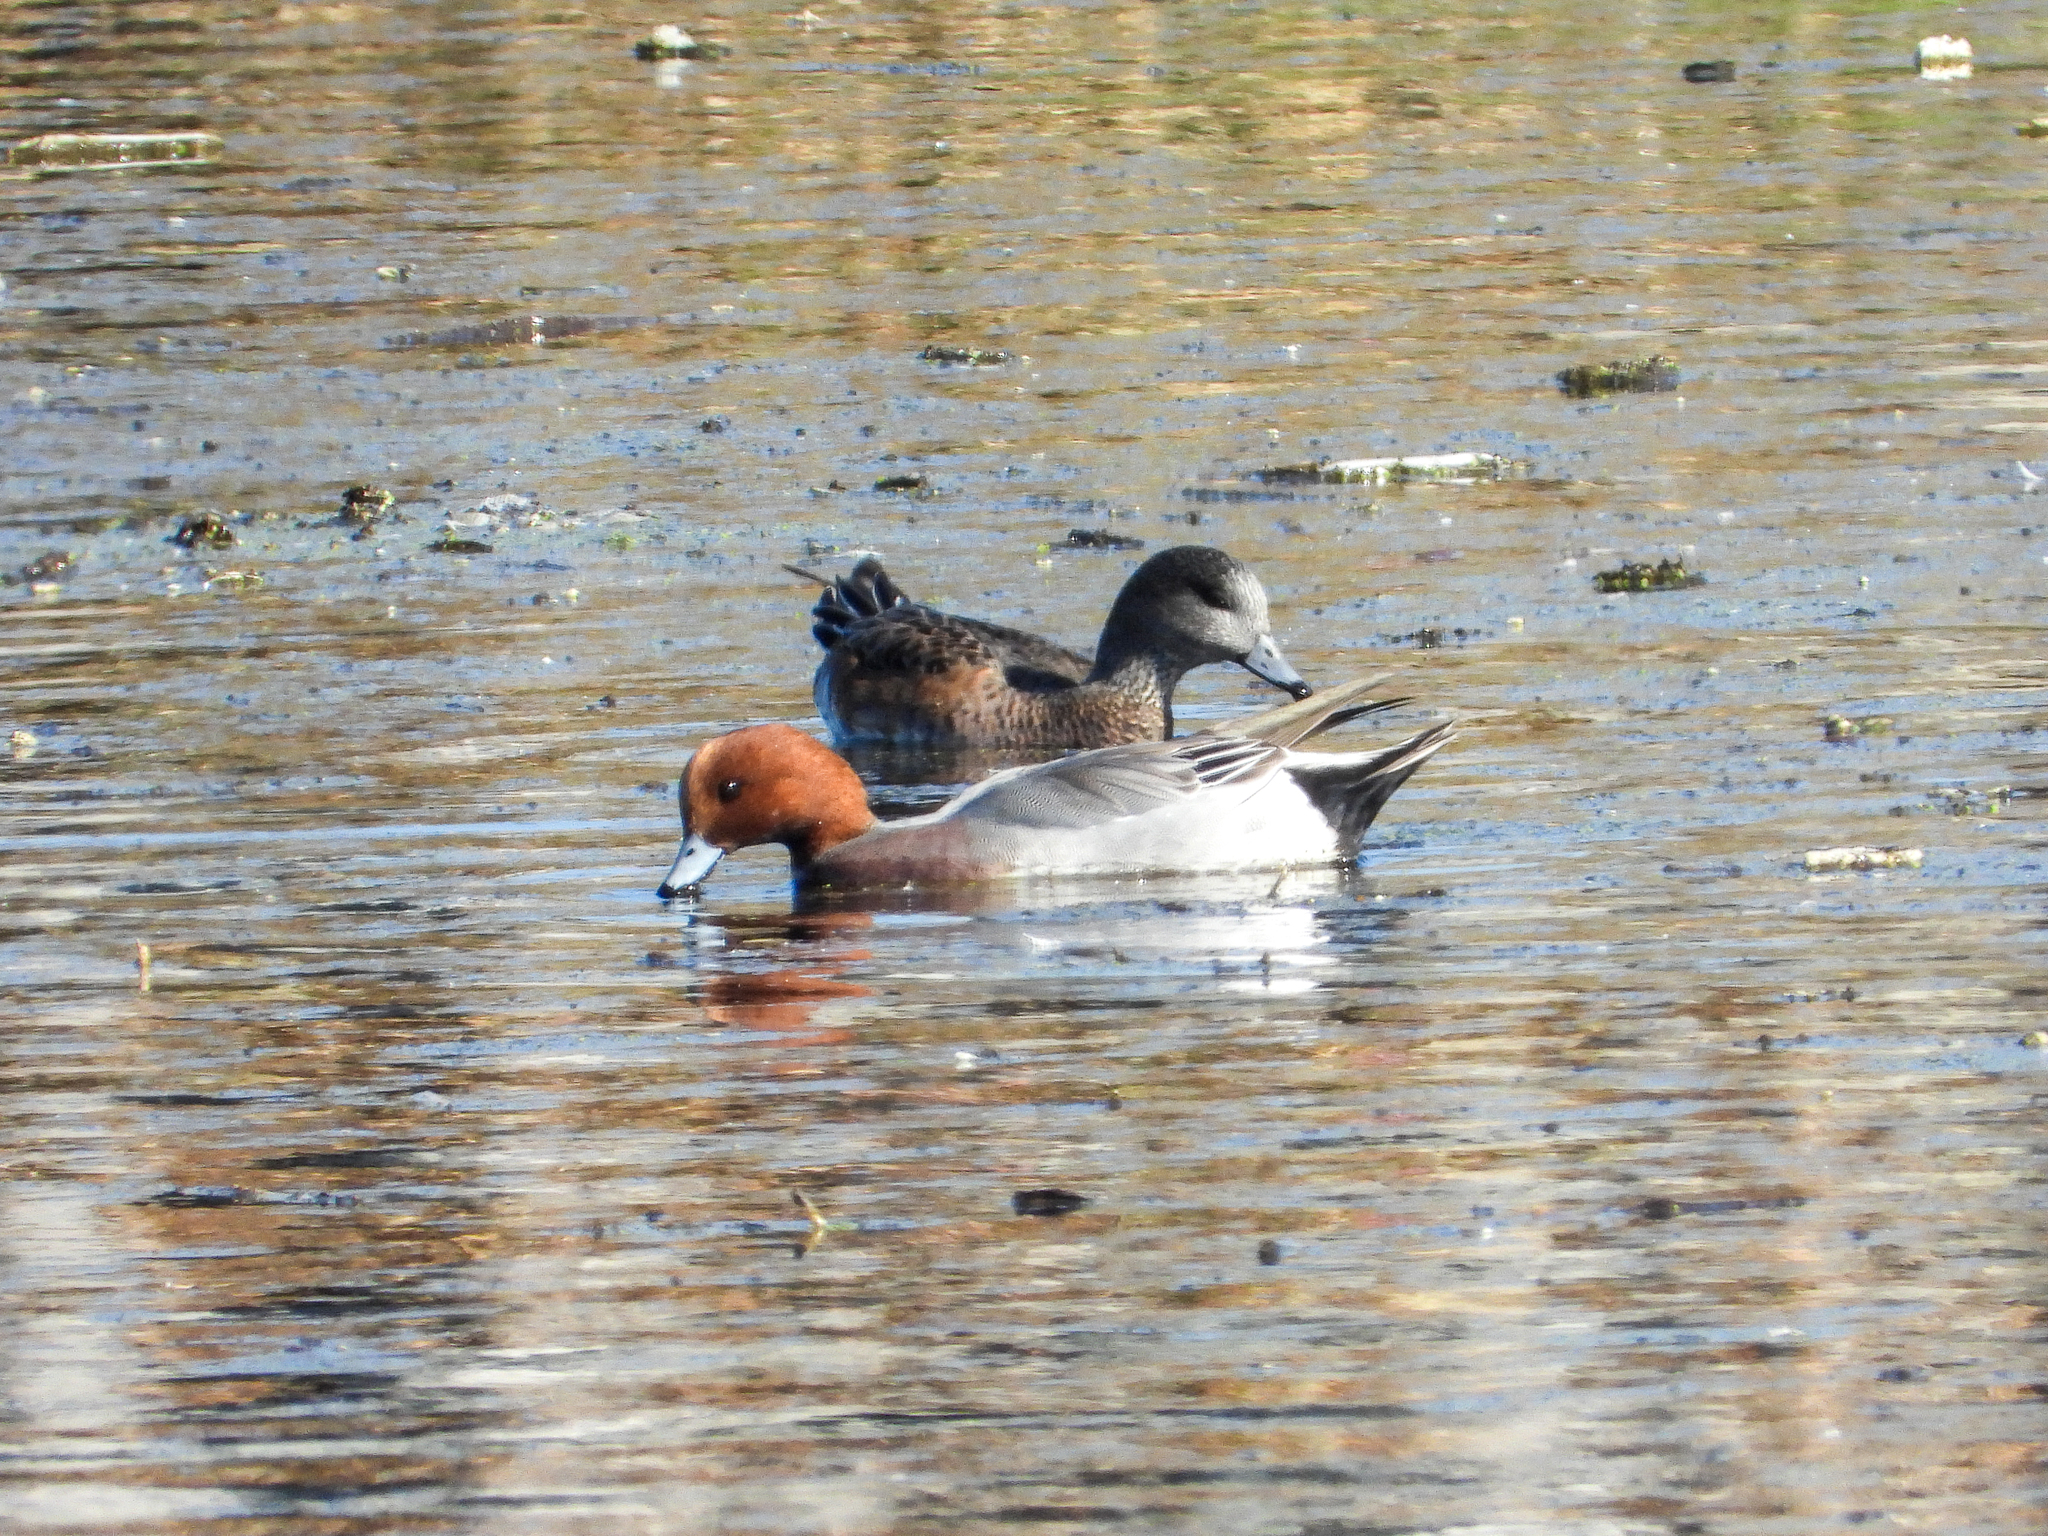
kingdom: Animalia
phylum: Chordata
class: Aves
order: Anseriformes
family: Anatidae
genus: Mareca
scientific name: Mareca penelope
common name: Eurasian wigeon
